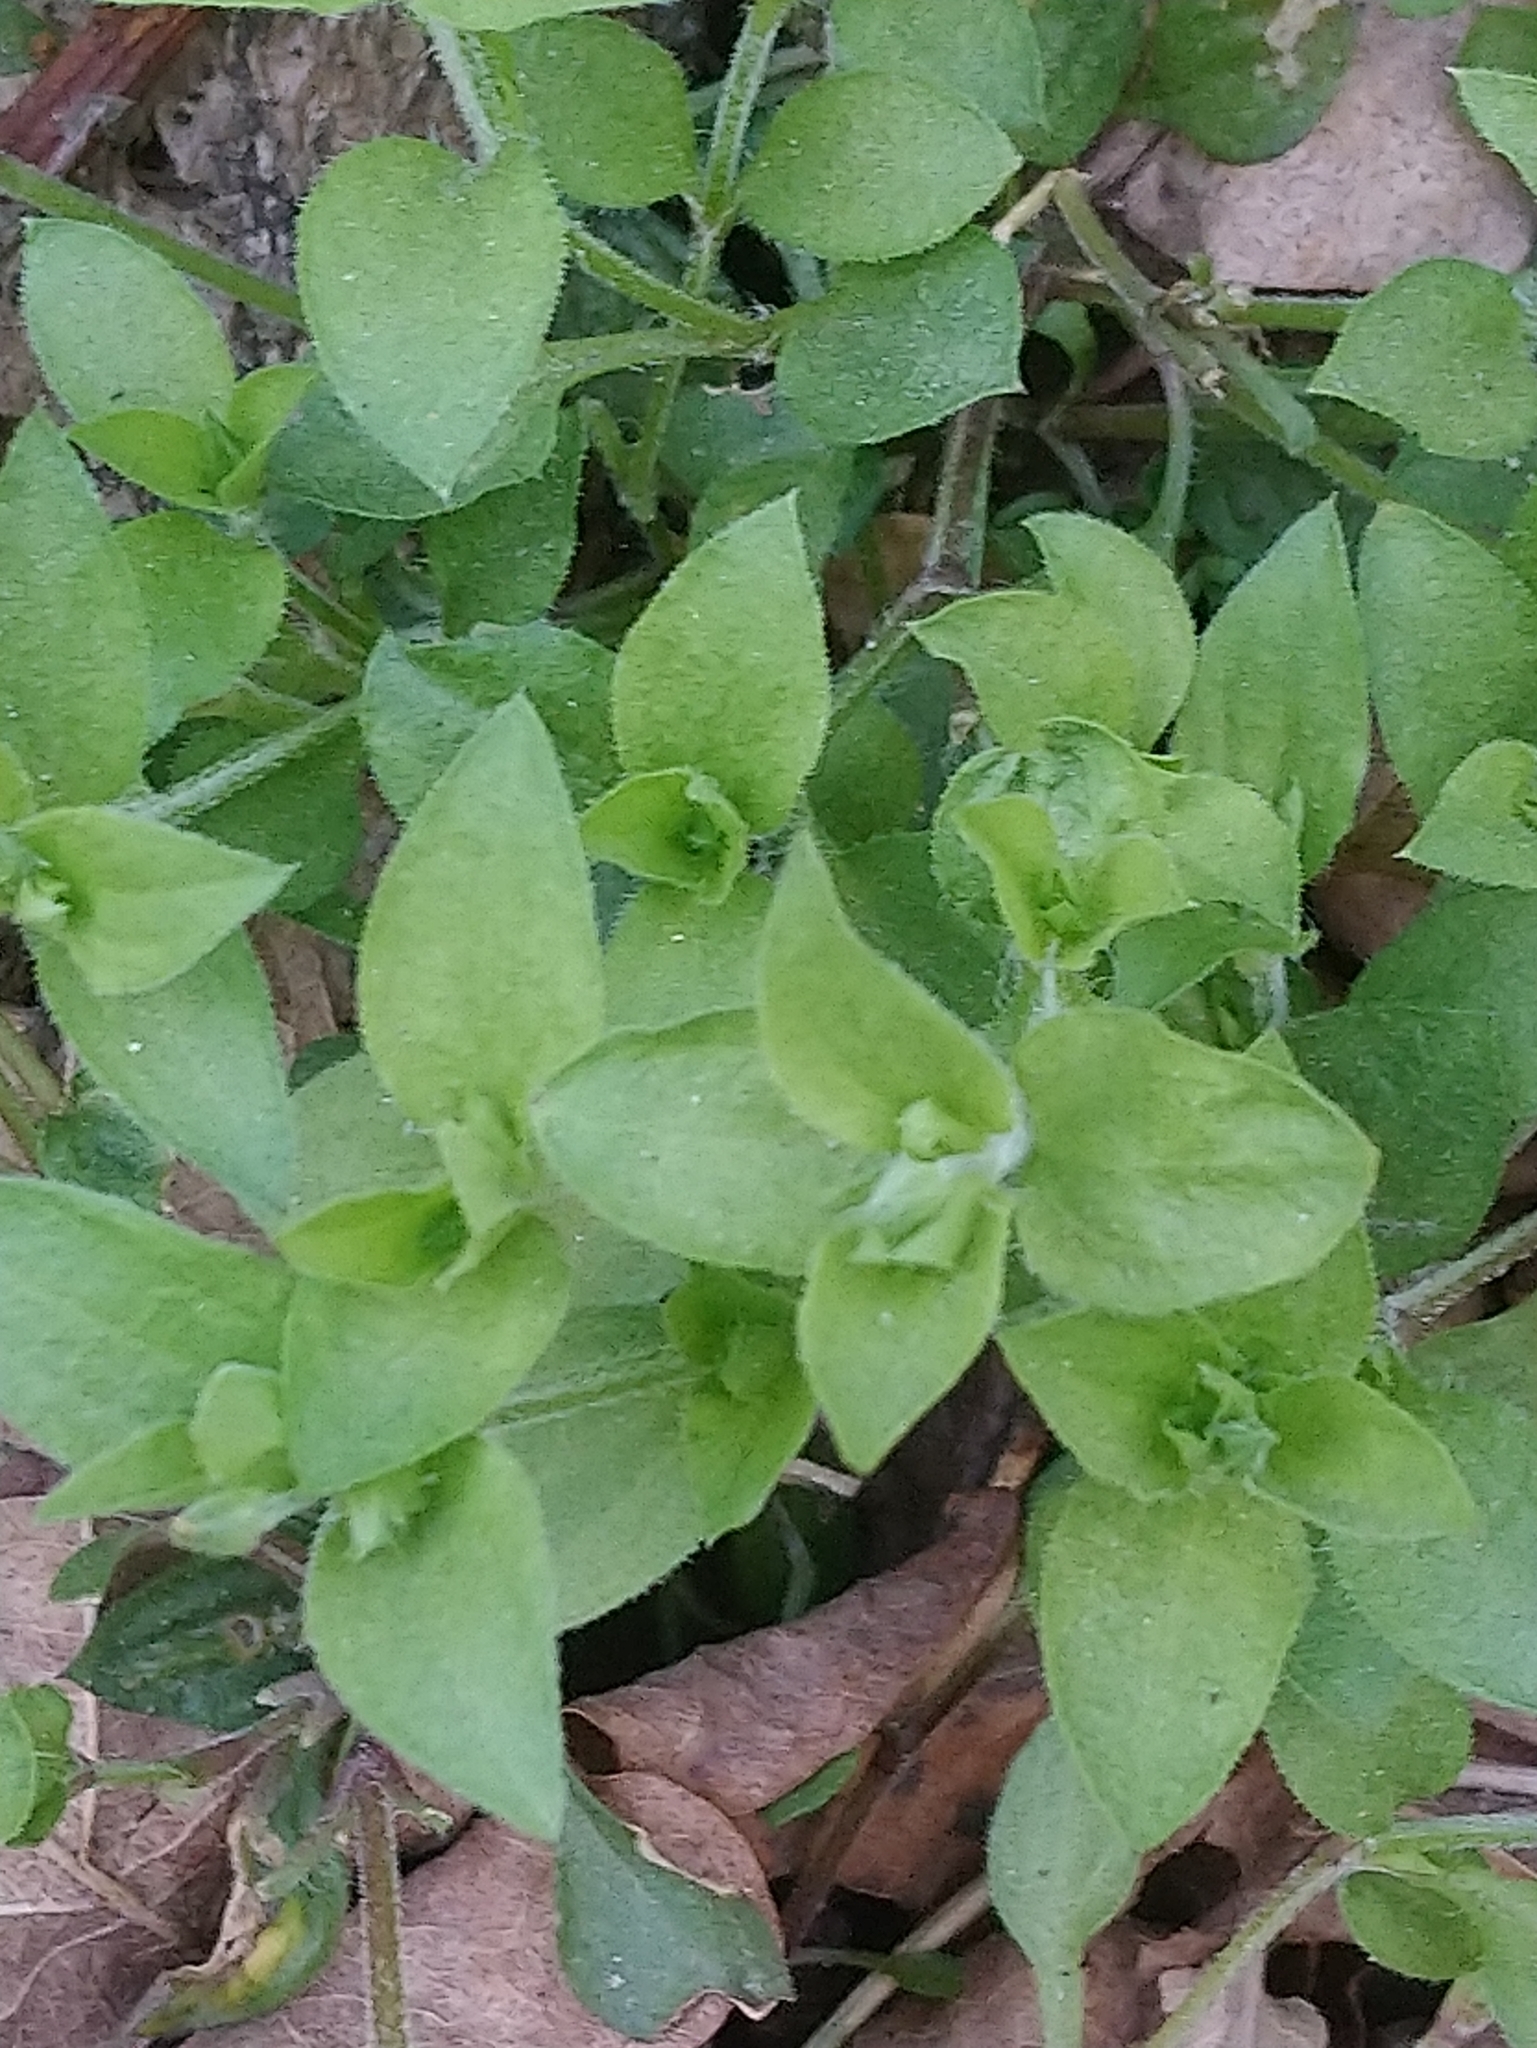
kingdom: Plantae
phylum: Tracheophyta
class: Magnoliopsida
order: Caryophyllales
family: Caryophyllaceae
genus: Moehringia
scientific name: Moehringia trinervia
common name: Three-nerved sandwort
